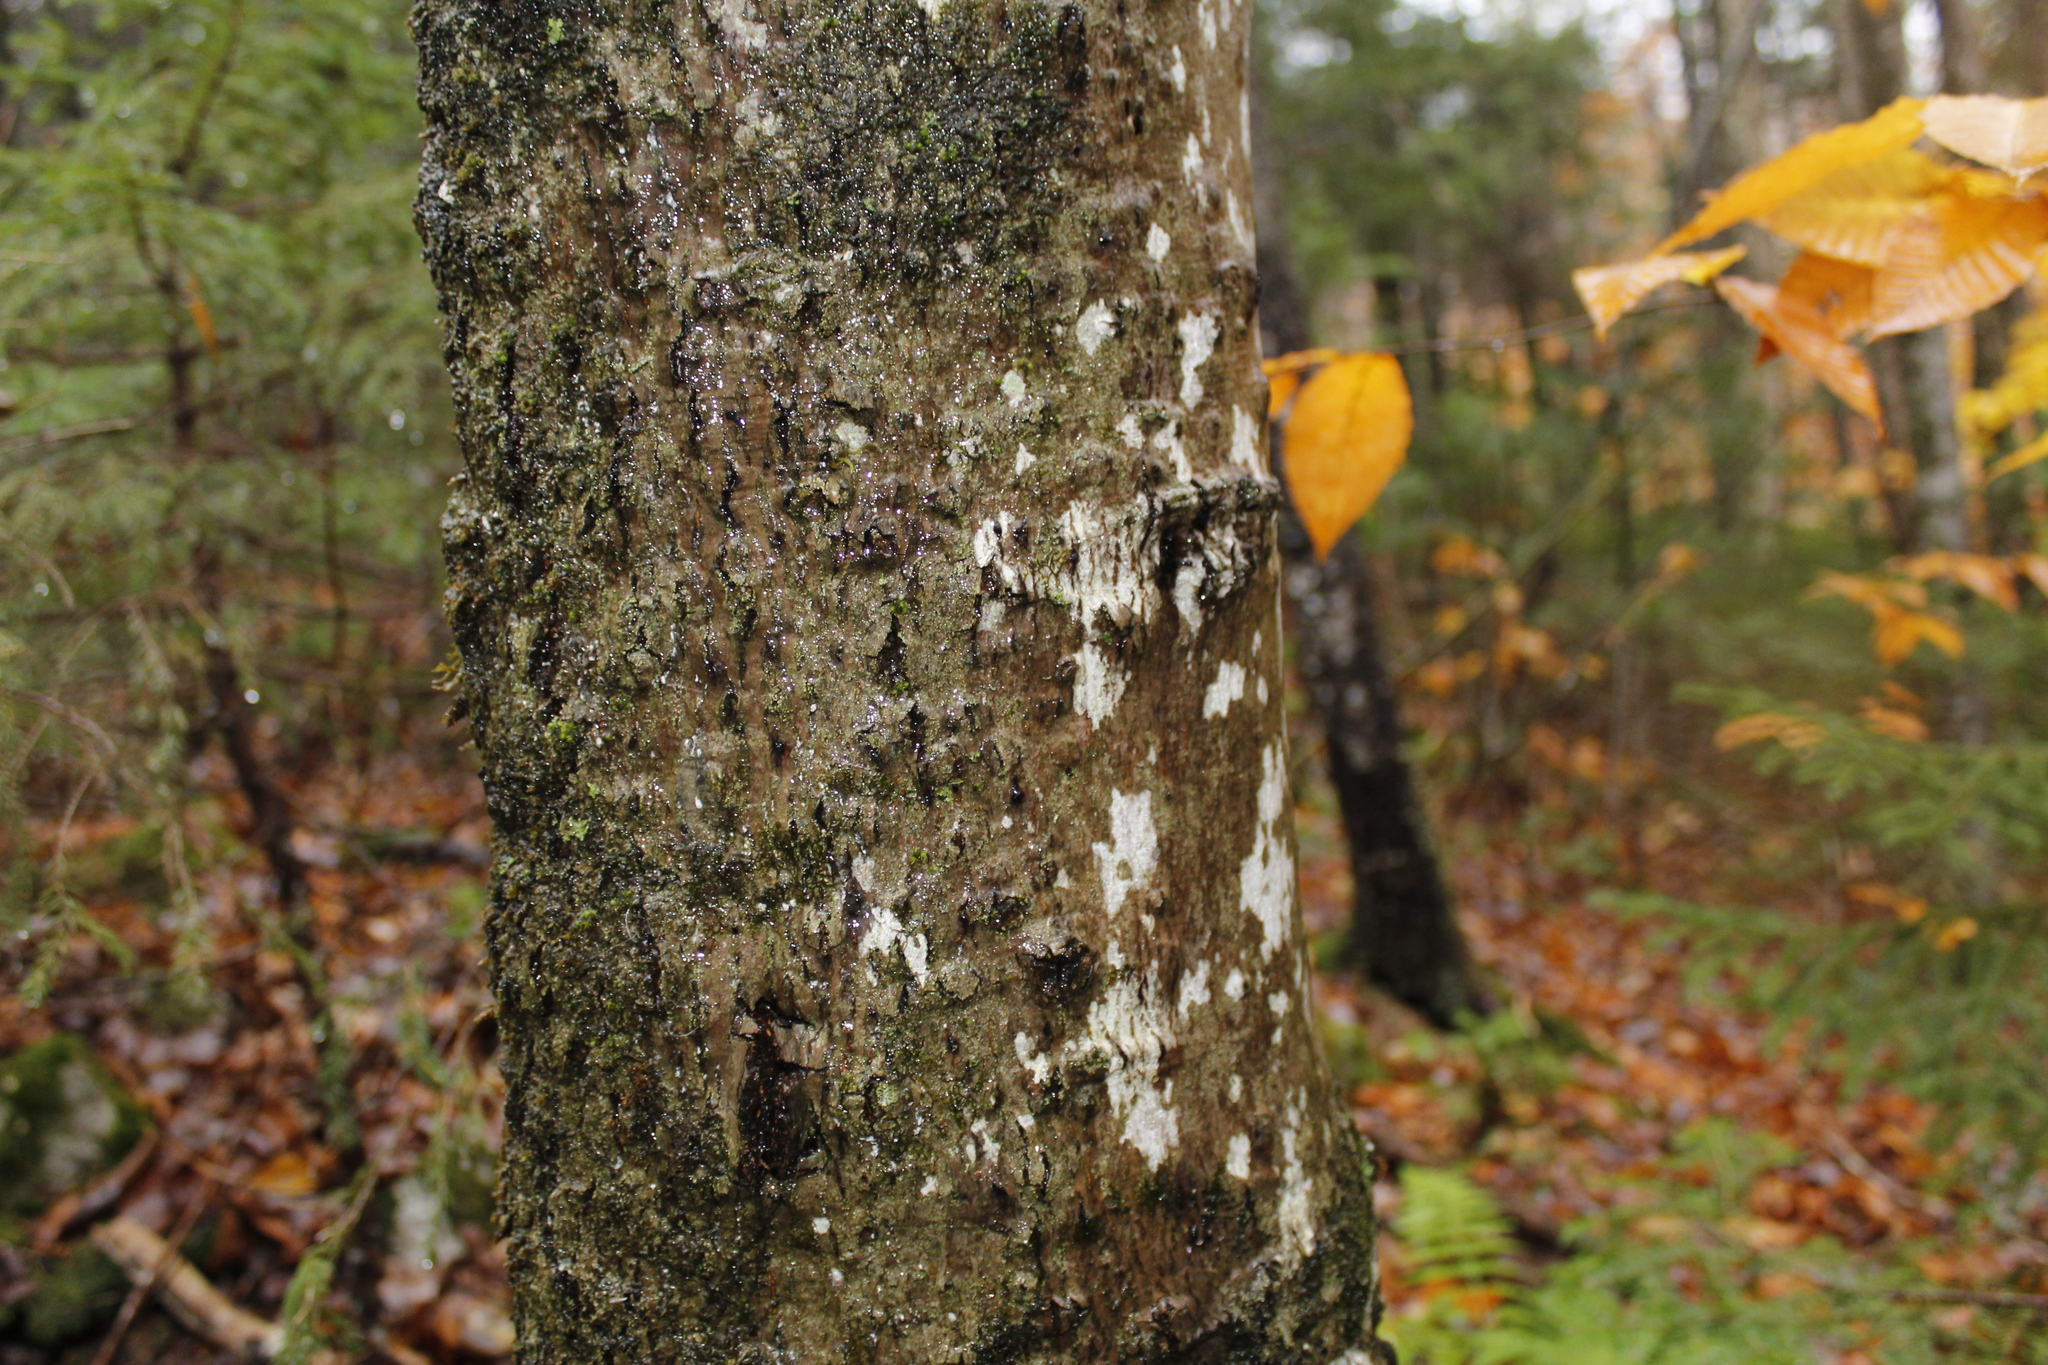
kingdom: Plantae
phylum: Tracheophyta
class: Magnoliopsida
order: Fagales
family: Fagaceae
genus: Fagus
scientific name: Fagus grandifolia
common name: American beech
